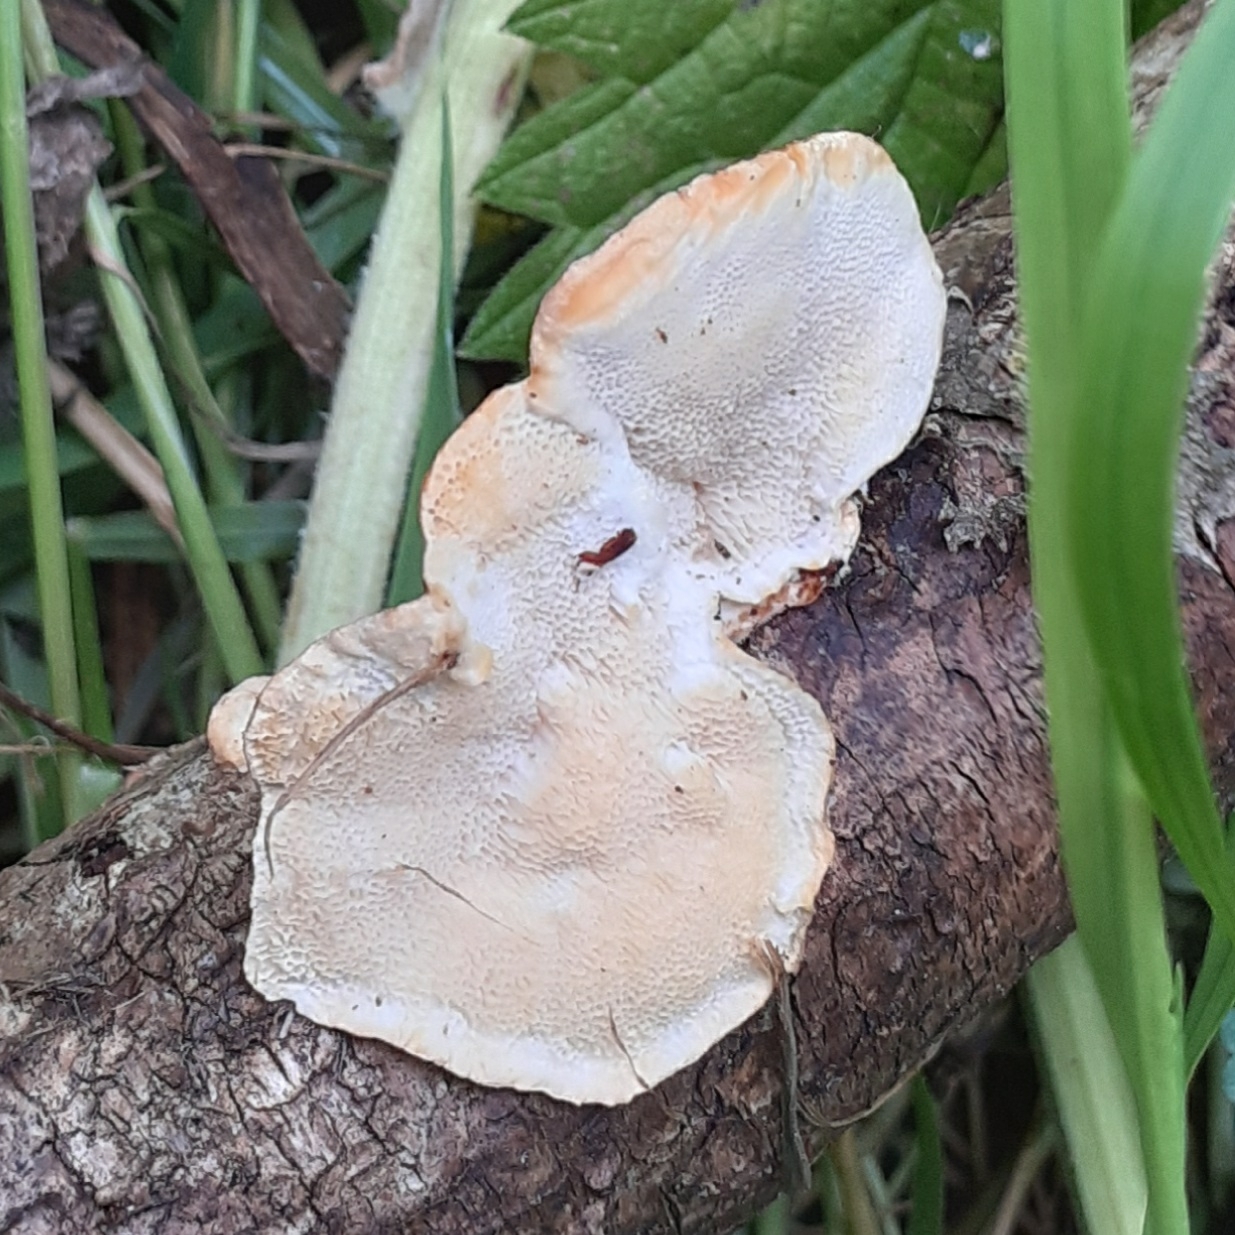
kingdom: Fungi
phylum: Basidiomycota
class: Agaricomycetes
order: Polyporales
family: Polyporaceae
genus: Trametes
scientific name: Trametes versicolor
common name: Turkeytail
